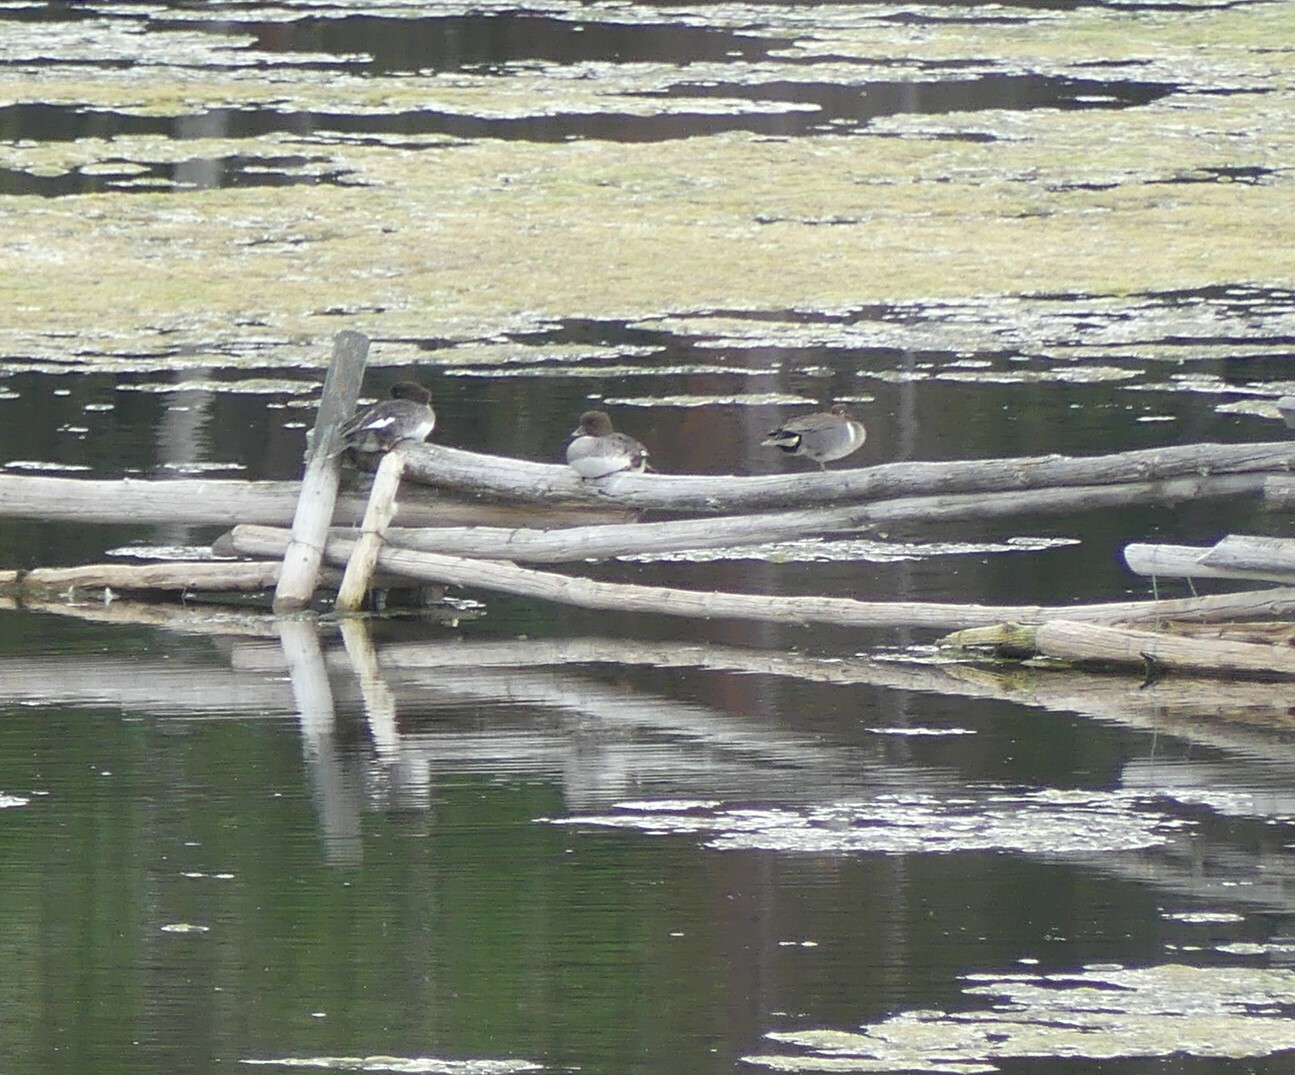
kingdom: Animalia
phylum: Chordata
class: Aves
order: Anseriformes
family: Anatidae
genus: Bucephala
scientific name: Bucephala islandica
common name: Barrow's goldeneye
